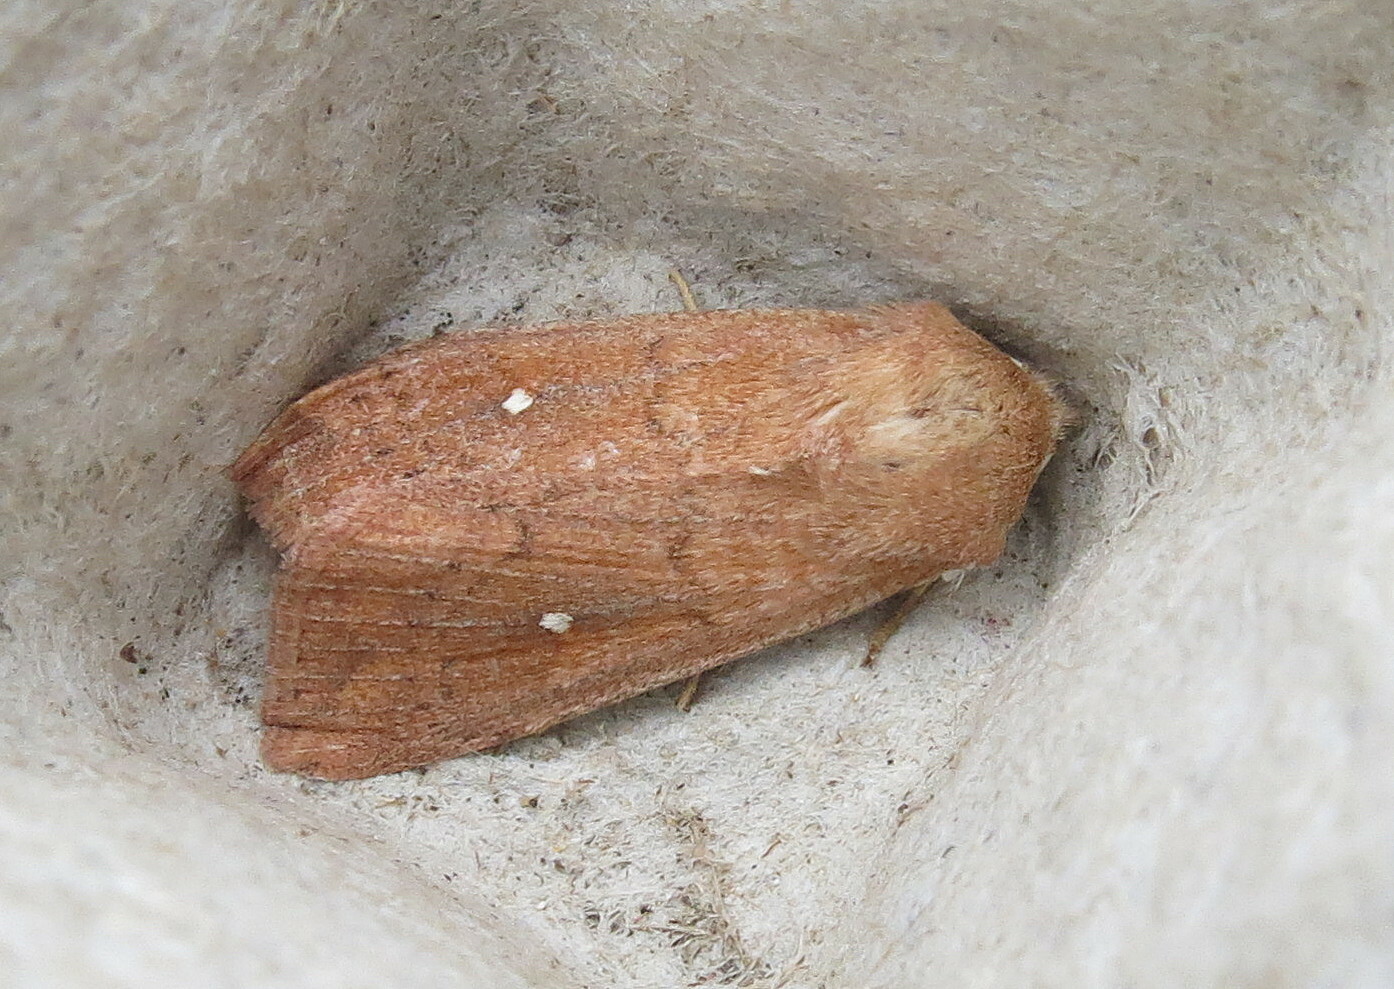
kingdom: Animalia
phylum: Arthropoda
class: Insecta
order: Lepidoptera
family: Noctuidae
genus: Mythimna
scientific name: Mythimna albipuncta
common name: White-point
